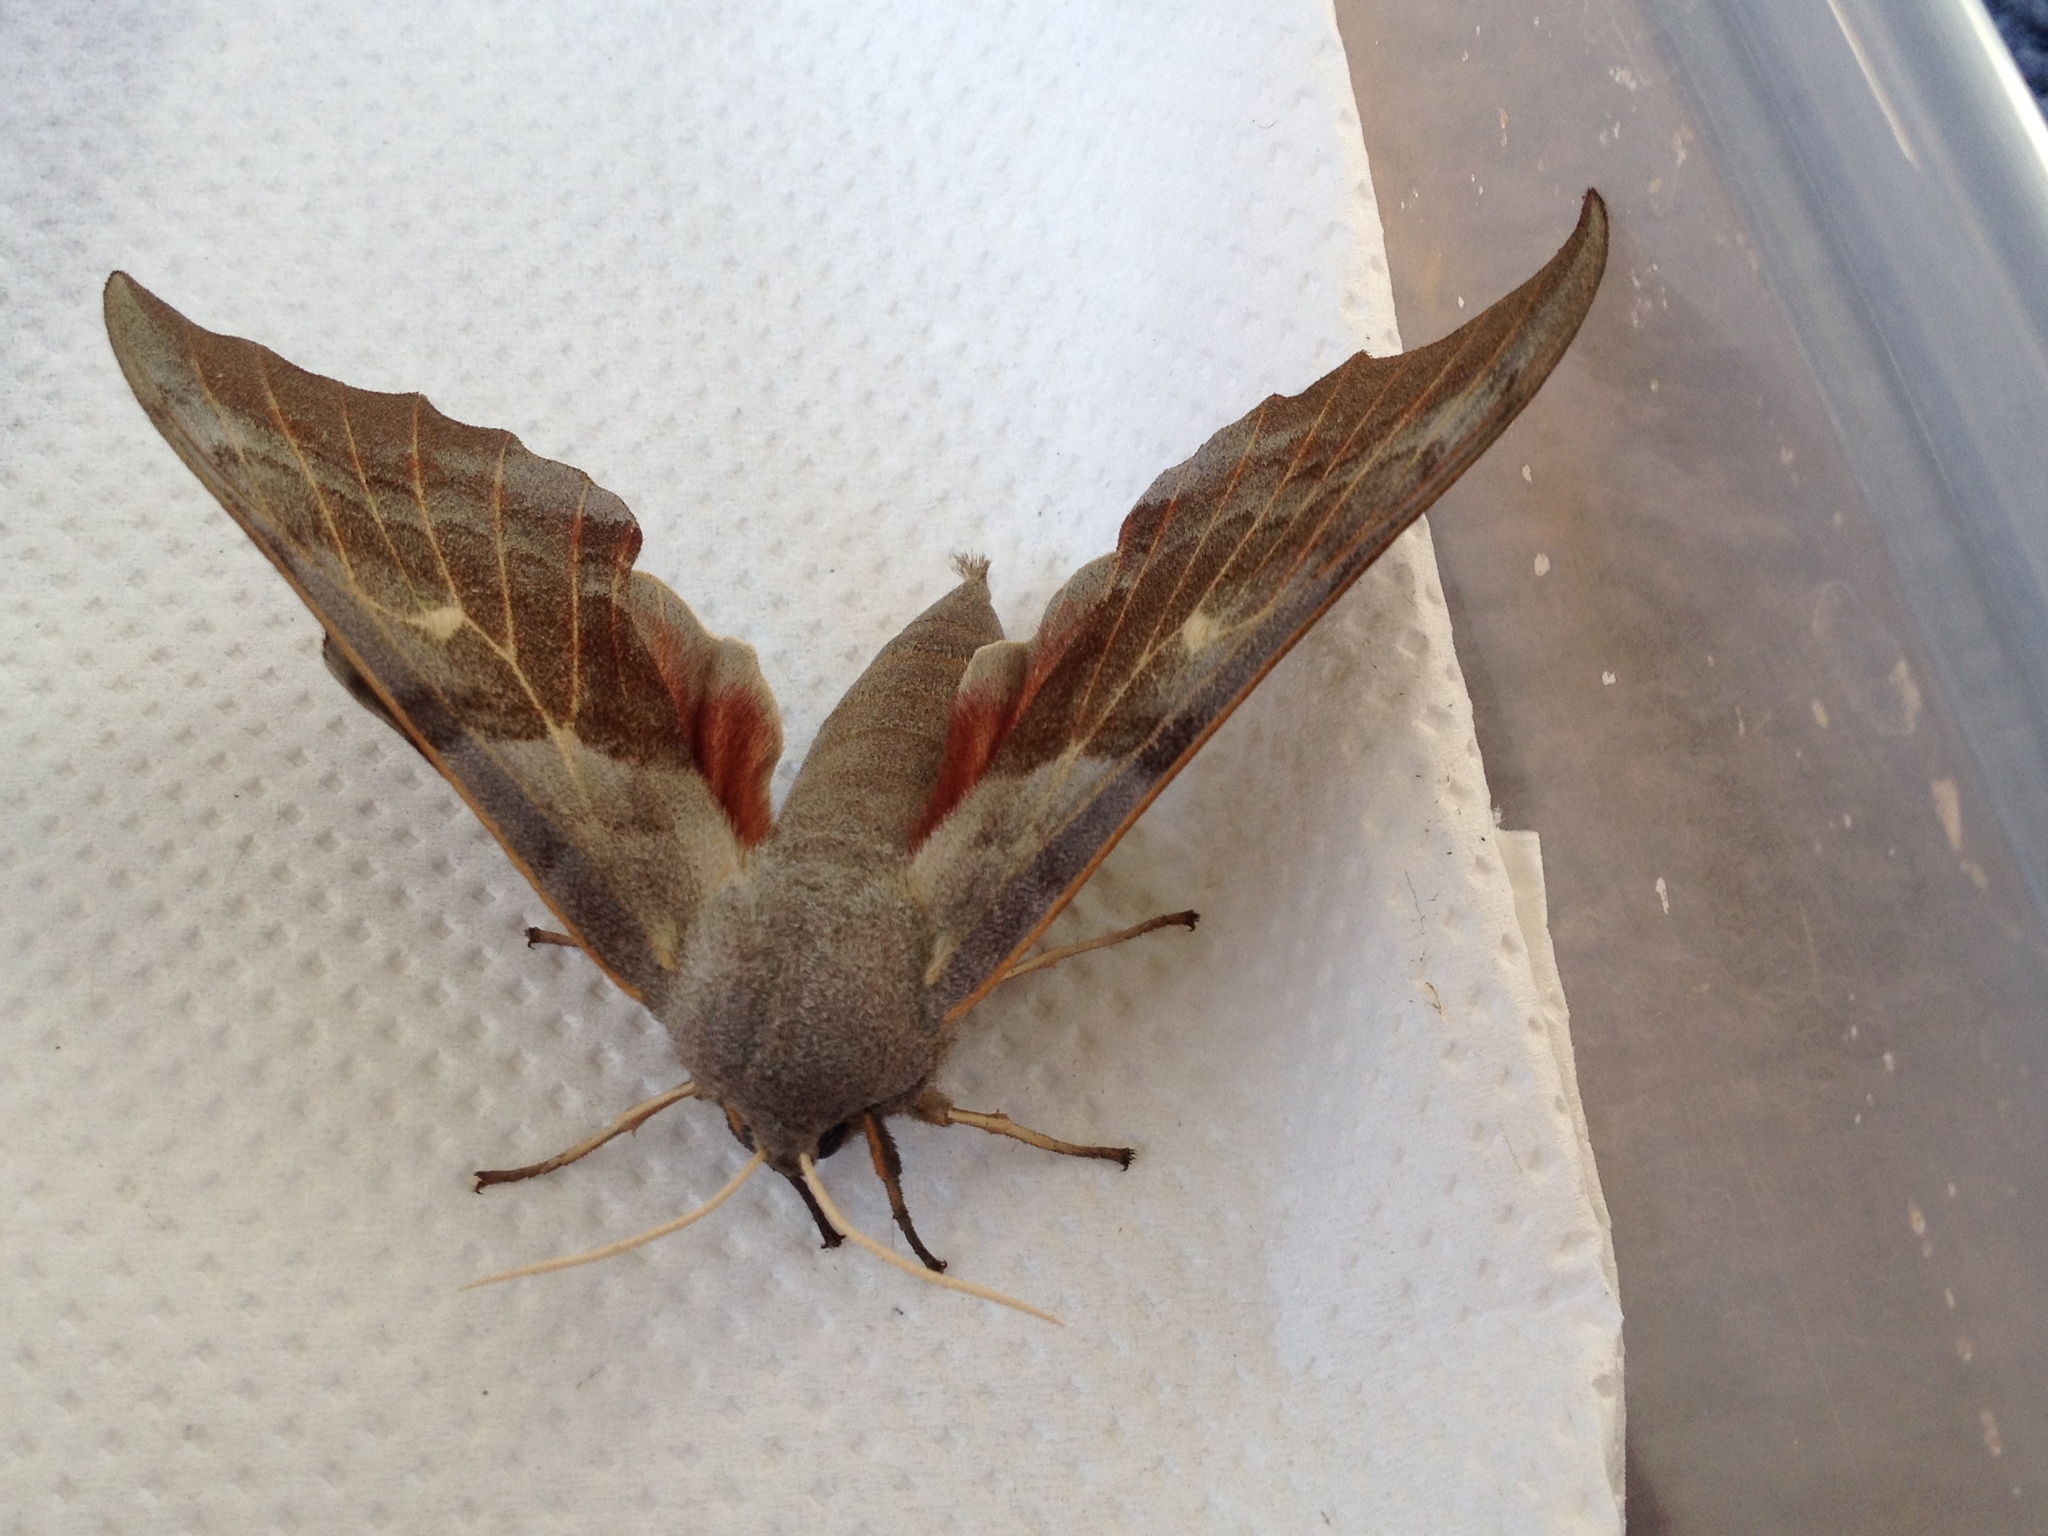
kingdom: Animalia
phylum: Arthropoda
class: Insecta
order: Lepidoptera
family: Sphingidae
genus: Laothoe
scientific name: Laothoe populi
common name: Poplar hawk-moth
